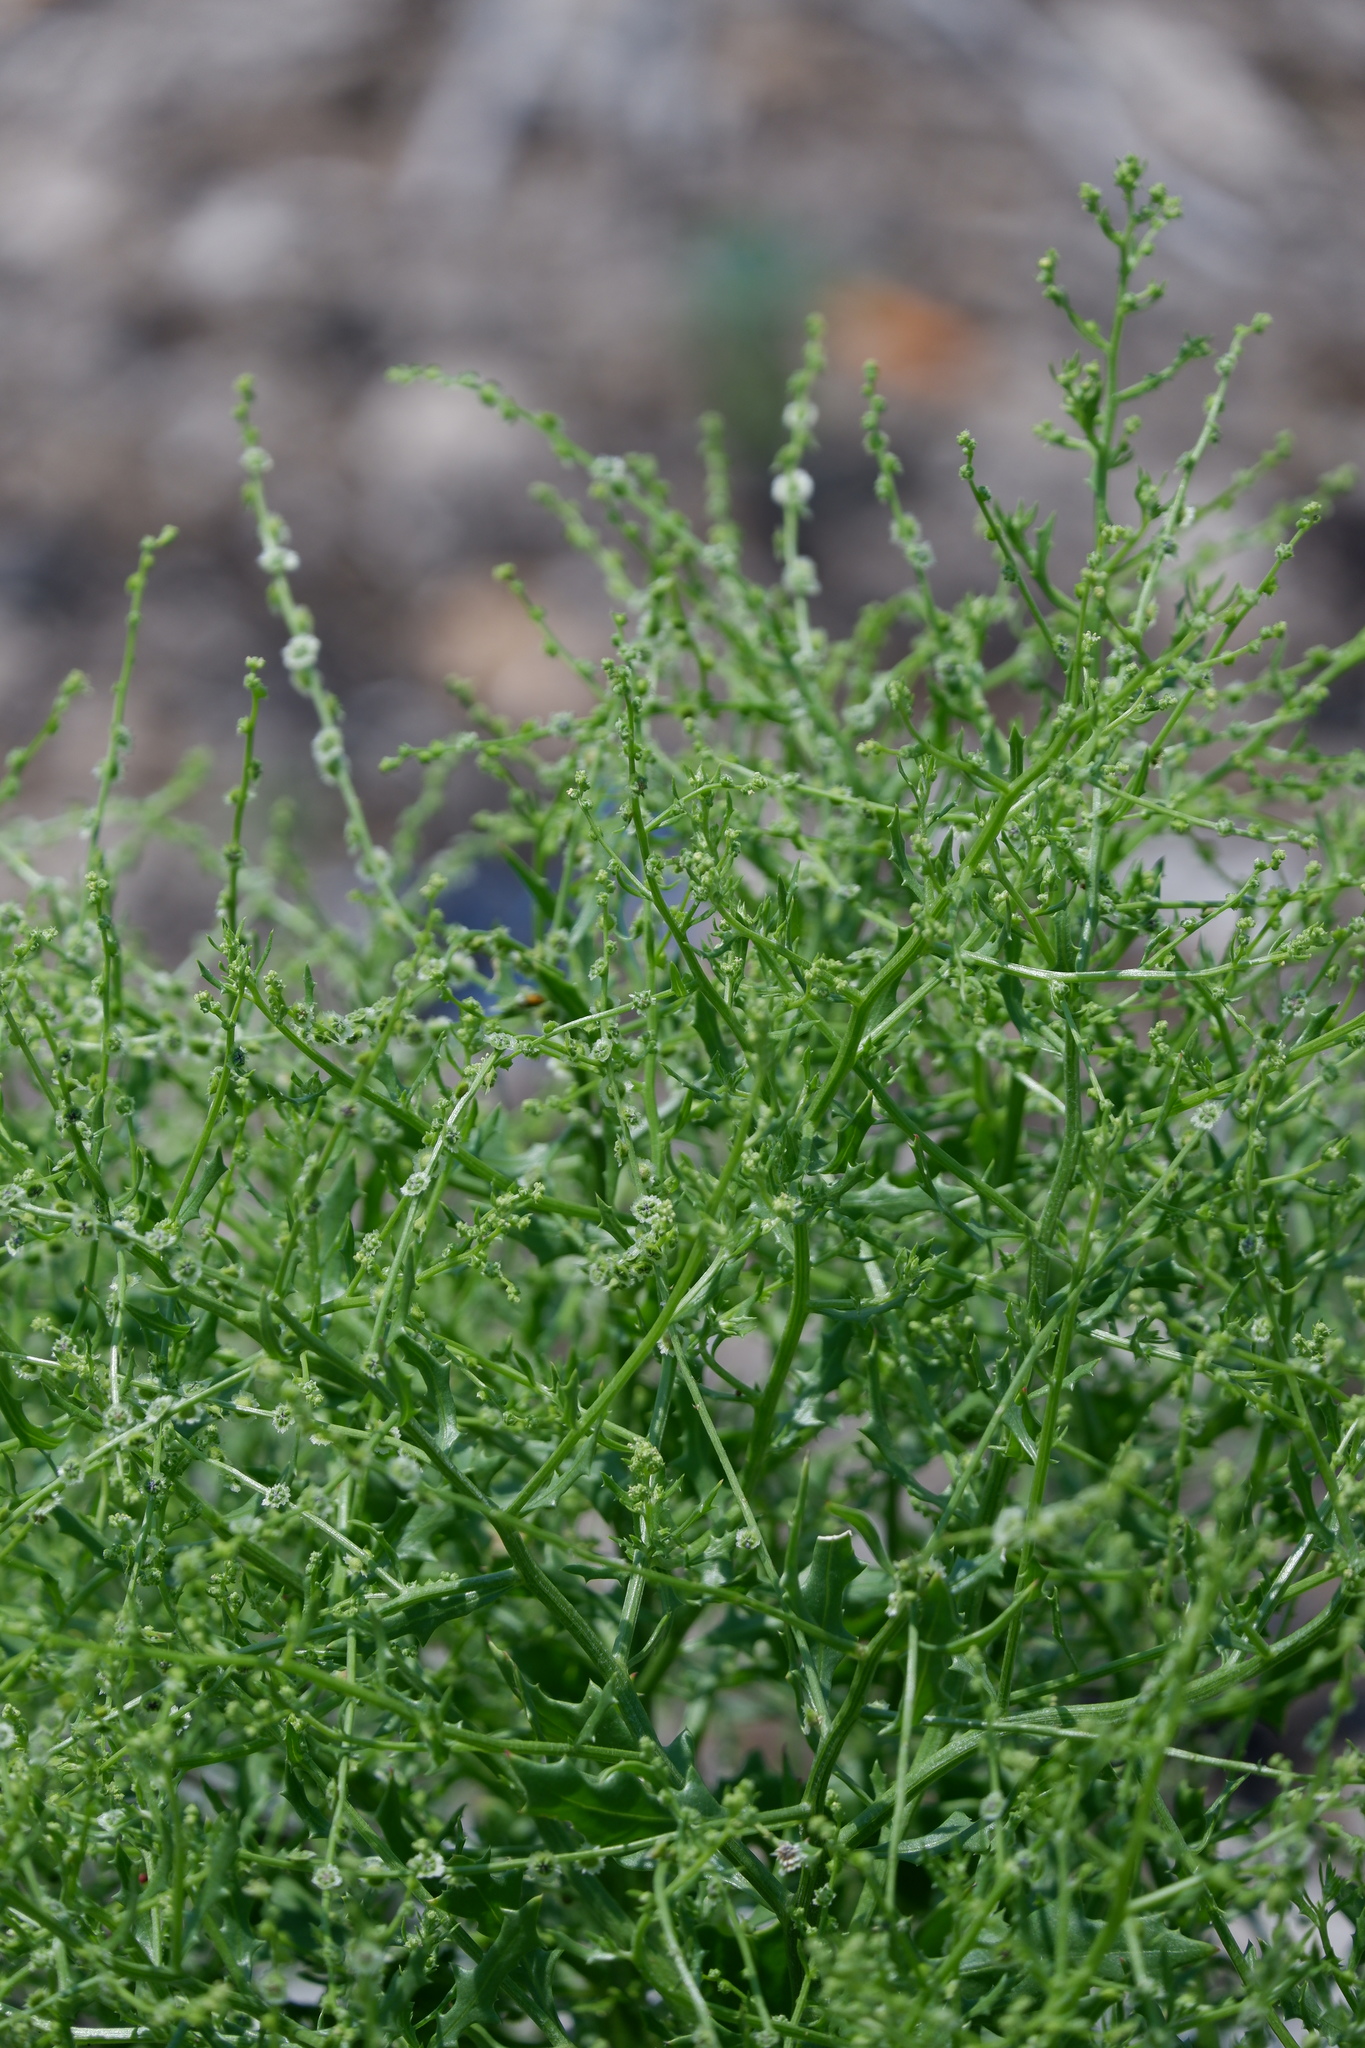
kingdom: Plantae
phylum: Tracheophyta
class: Magnoliopsida
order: Caryophyllales
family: Amaranthaceae
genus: Dysphania
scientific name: Dysphania atriplicifolia
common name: Plains tumbleweed
